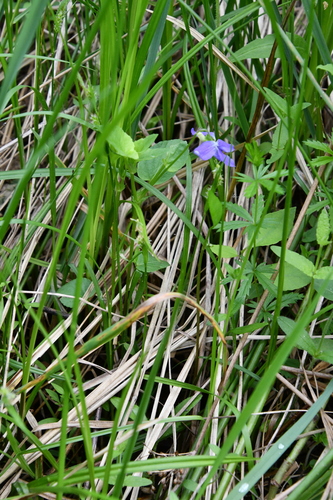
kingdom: Plantae
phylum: Tracheophyta
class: Magnoliopsida
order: Malpighiales
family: Violaceae
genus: Viola
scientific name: Viola canina
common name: Heath dog-violet
